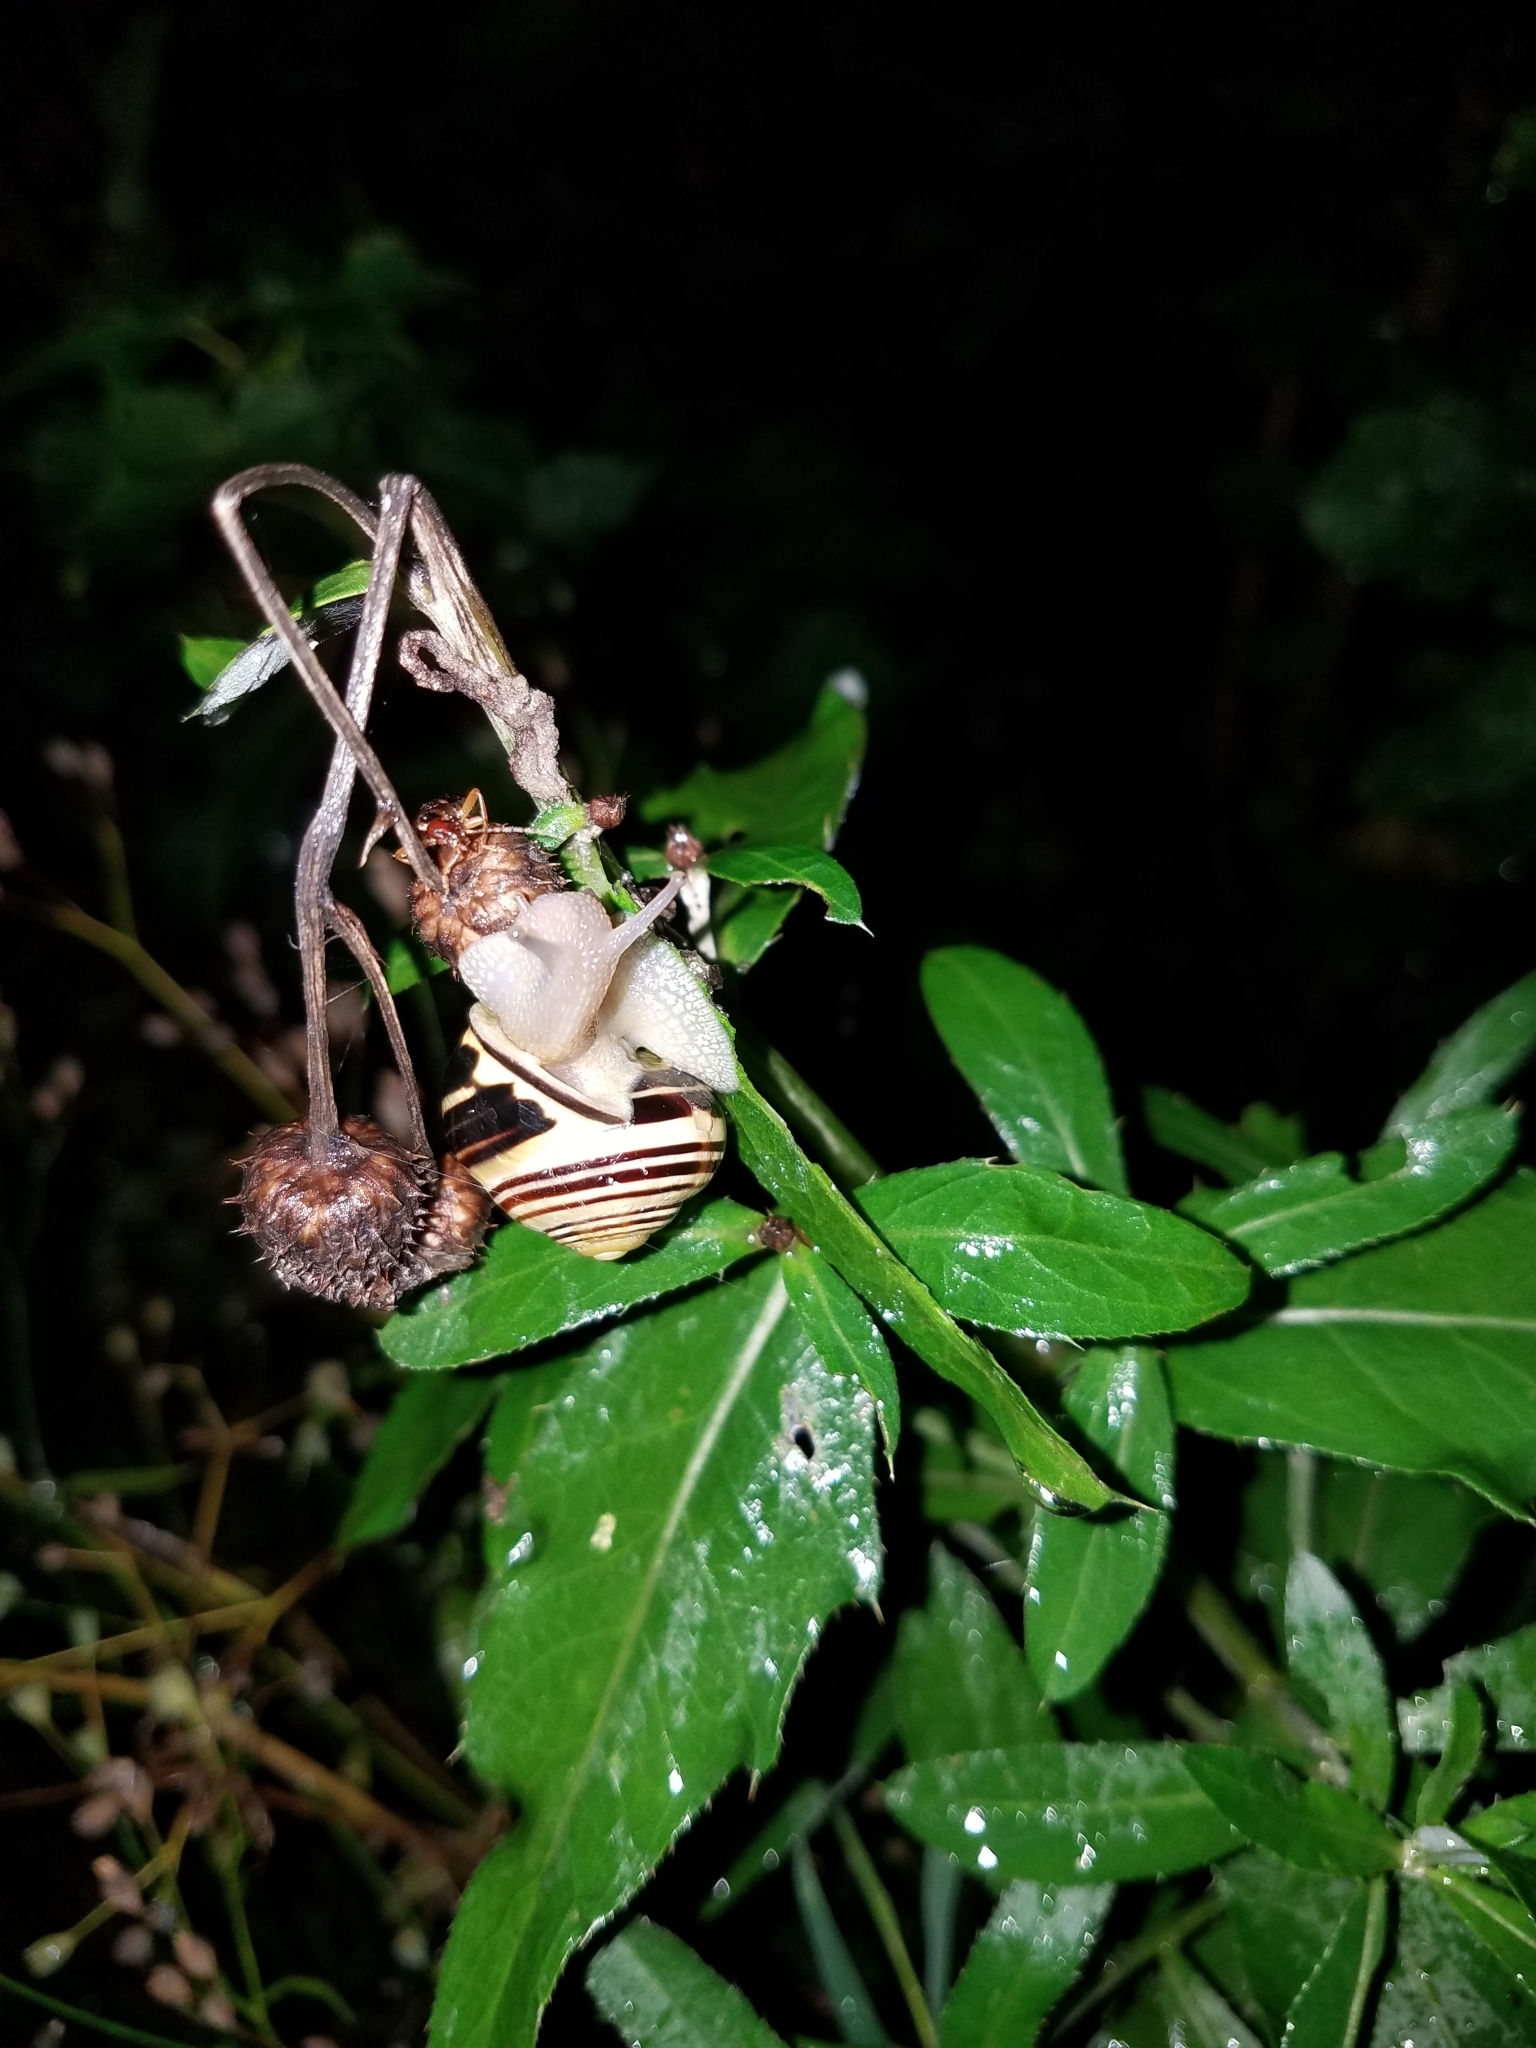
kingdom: Animalia
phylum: Mollusca
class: Gastropoda
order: Stylommatophora
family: Helicidae
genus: Cepaea
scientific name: Cepaea nemoralis
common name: Grovesnail
